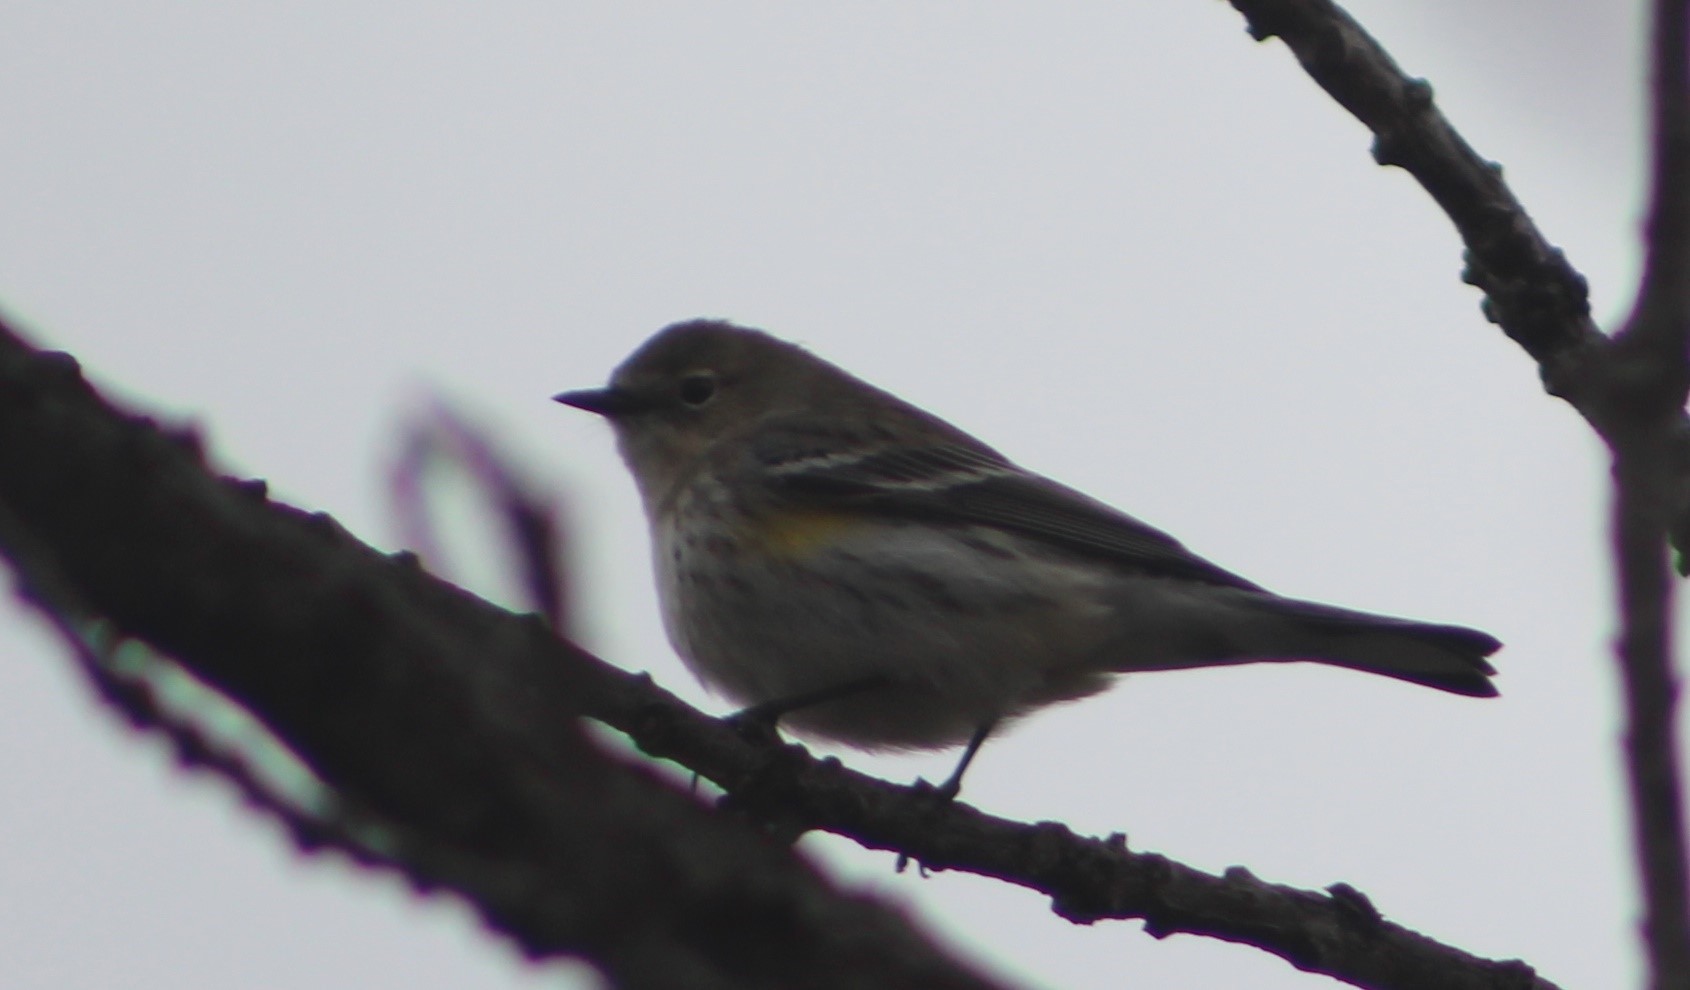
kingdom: Animalia
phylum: Chordata
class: Aves
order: Passeriformes
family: Parulidae
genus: Setophaga
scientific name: Setophaga coronata
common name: Myrtle warbler
